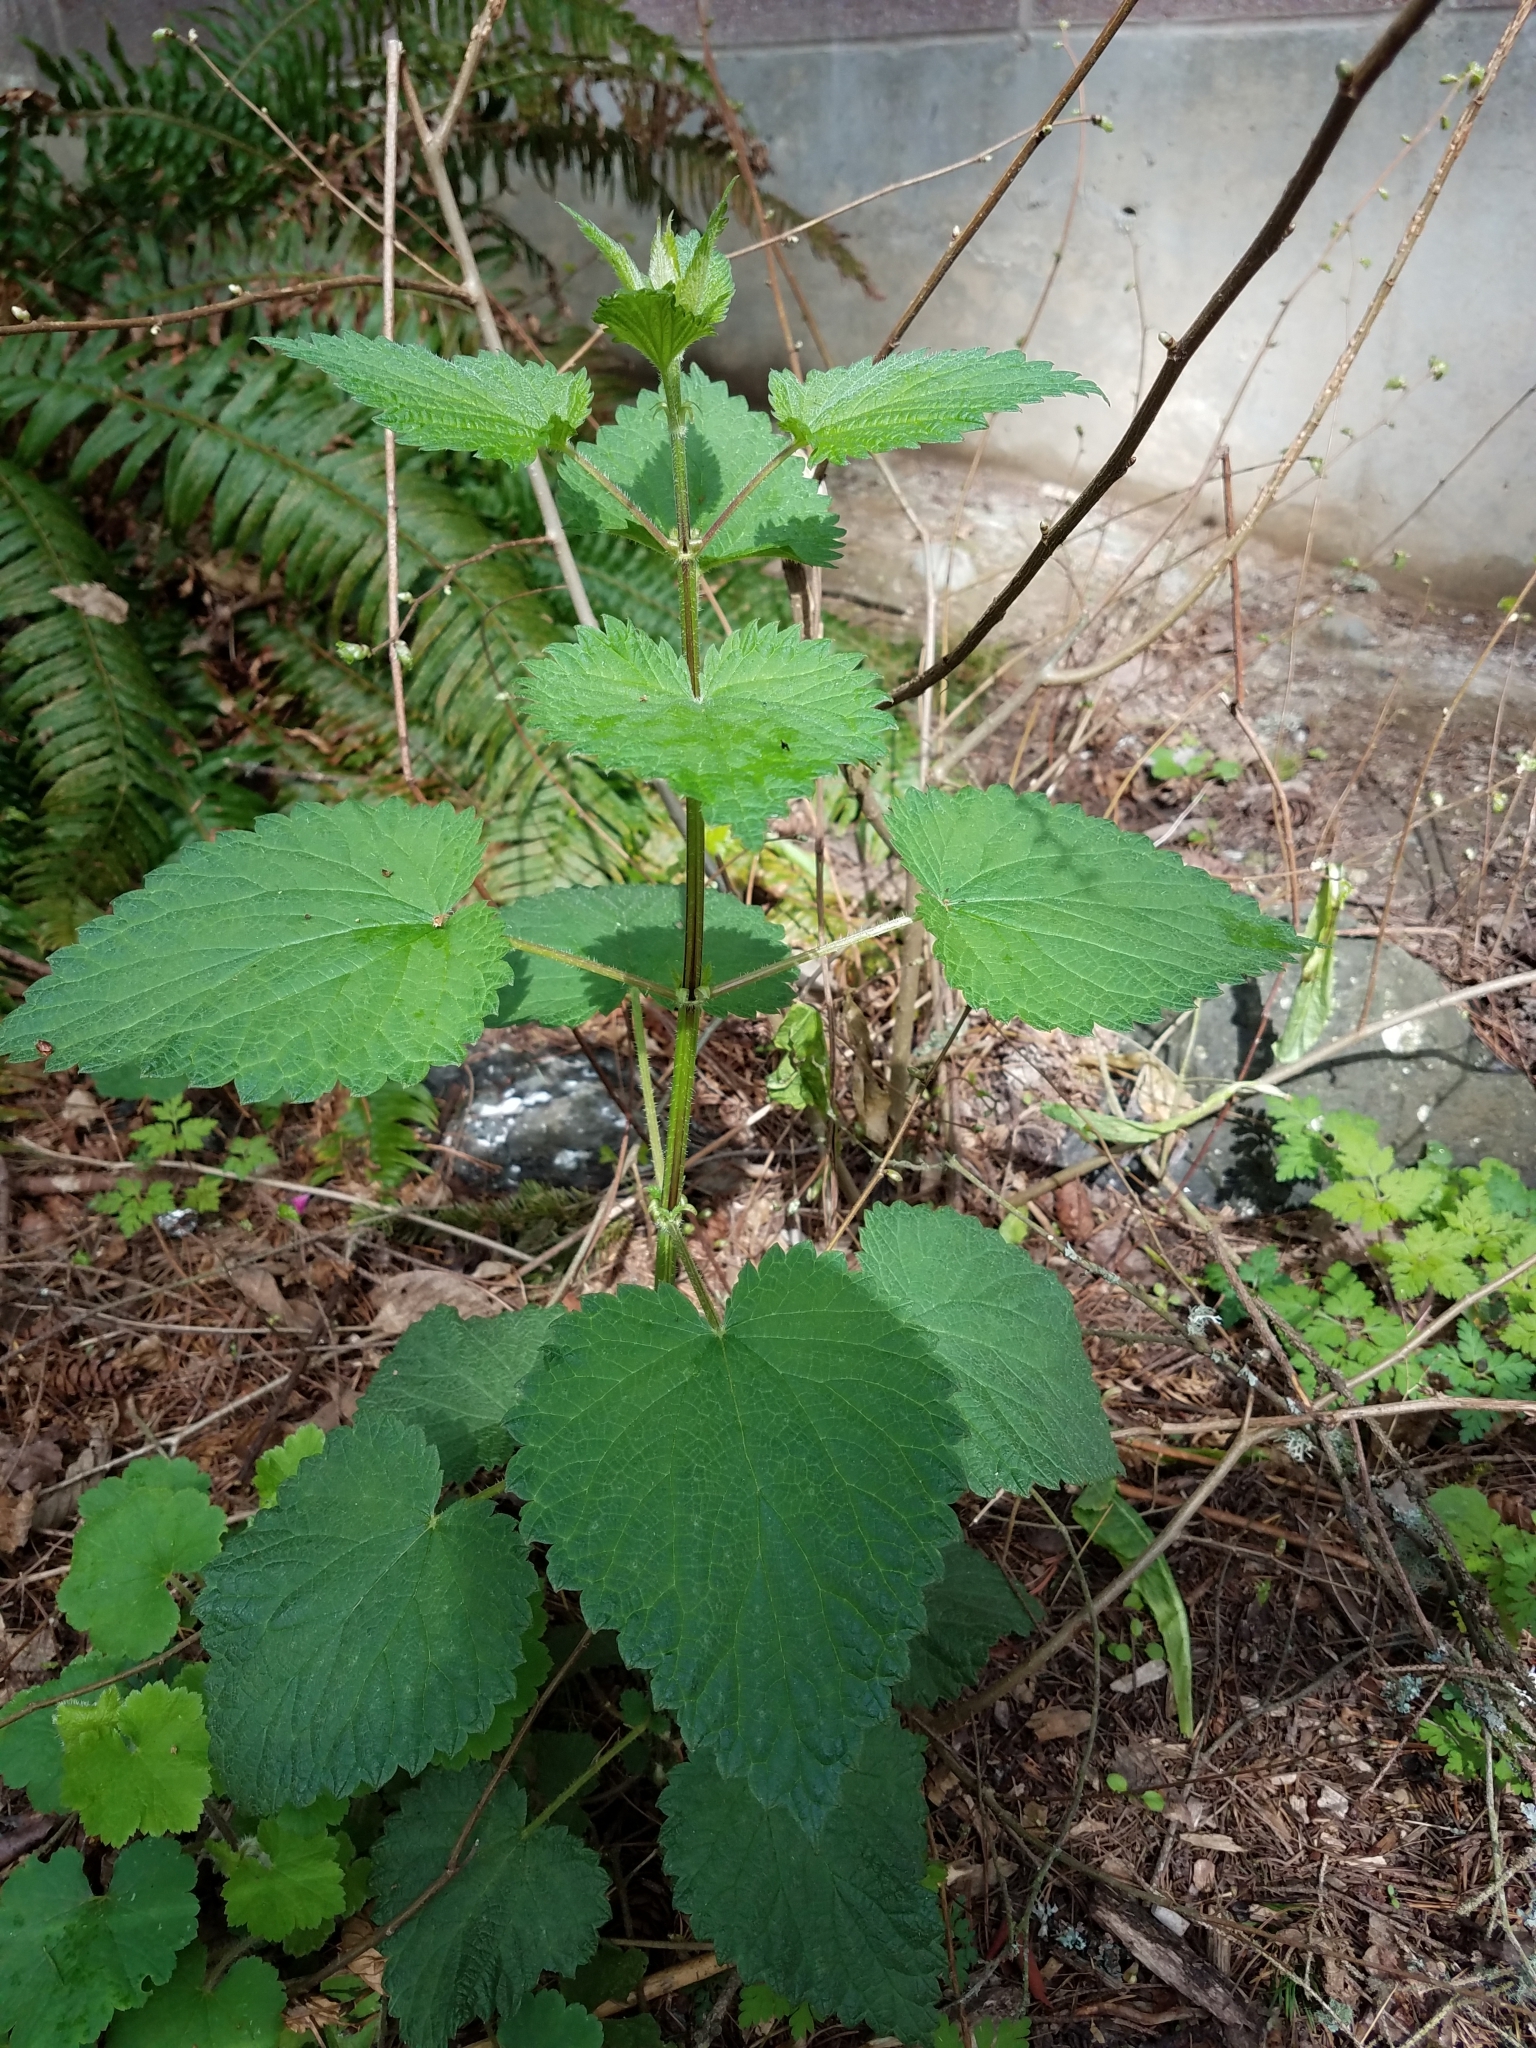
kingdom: Plantae
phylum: Tracheophyta
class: Magnoliopsida
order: Rosales
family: Urticaceae
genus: Urtica
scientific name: Urtica dioica
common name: Common nettle
